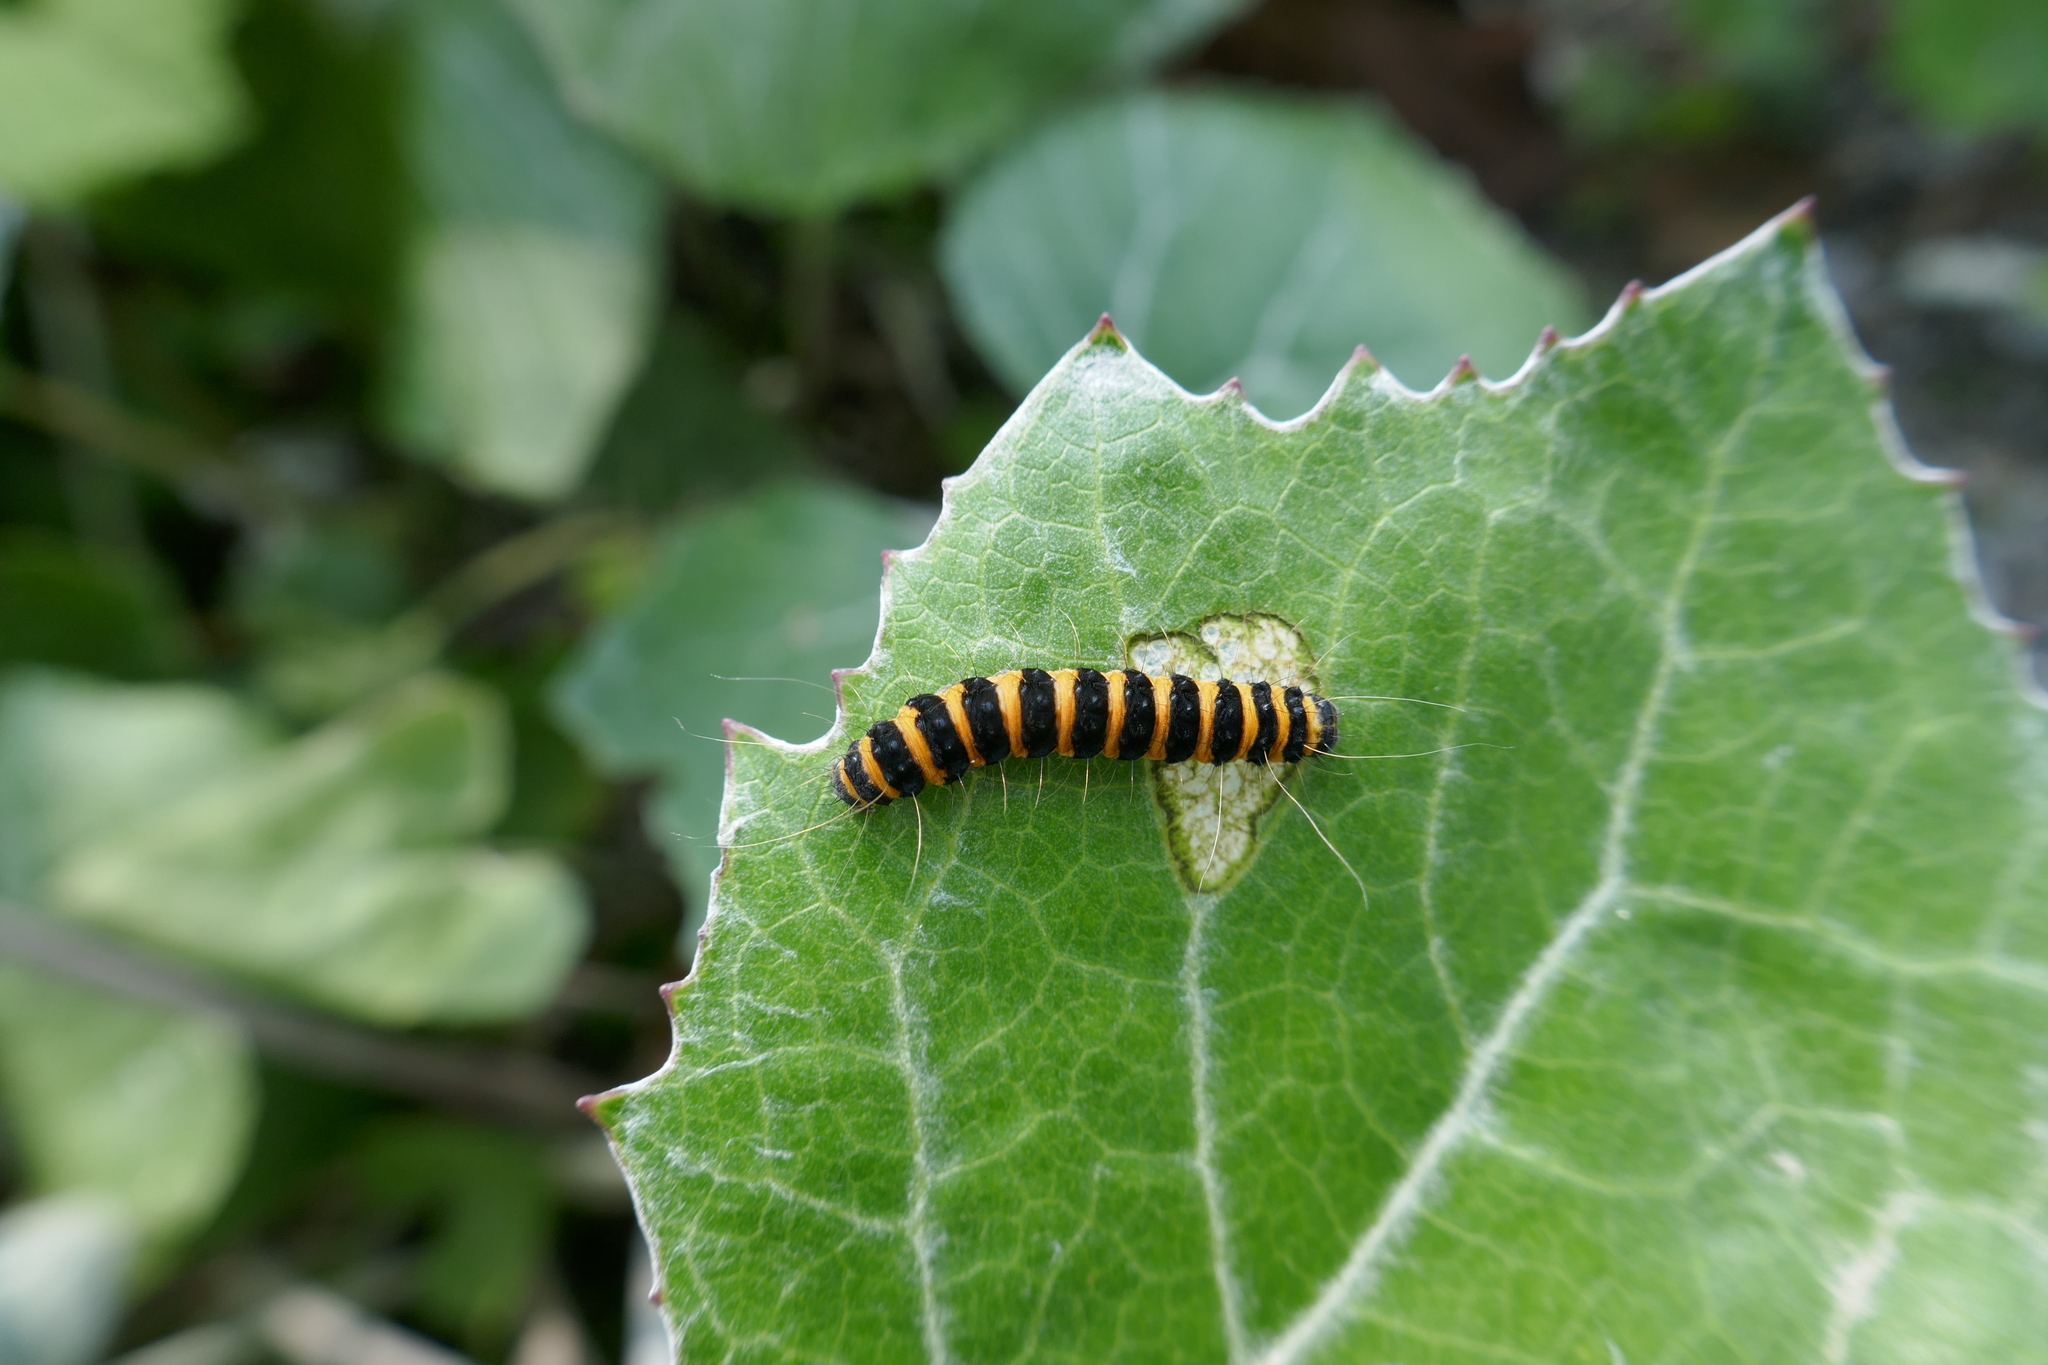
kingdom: Animalia
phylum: Arthropoda
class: Insecta
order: Lepidoptera
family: Erebidae
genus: Tyria
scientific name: Tyria jacobaeae
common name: Cinnabar
